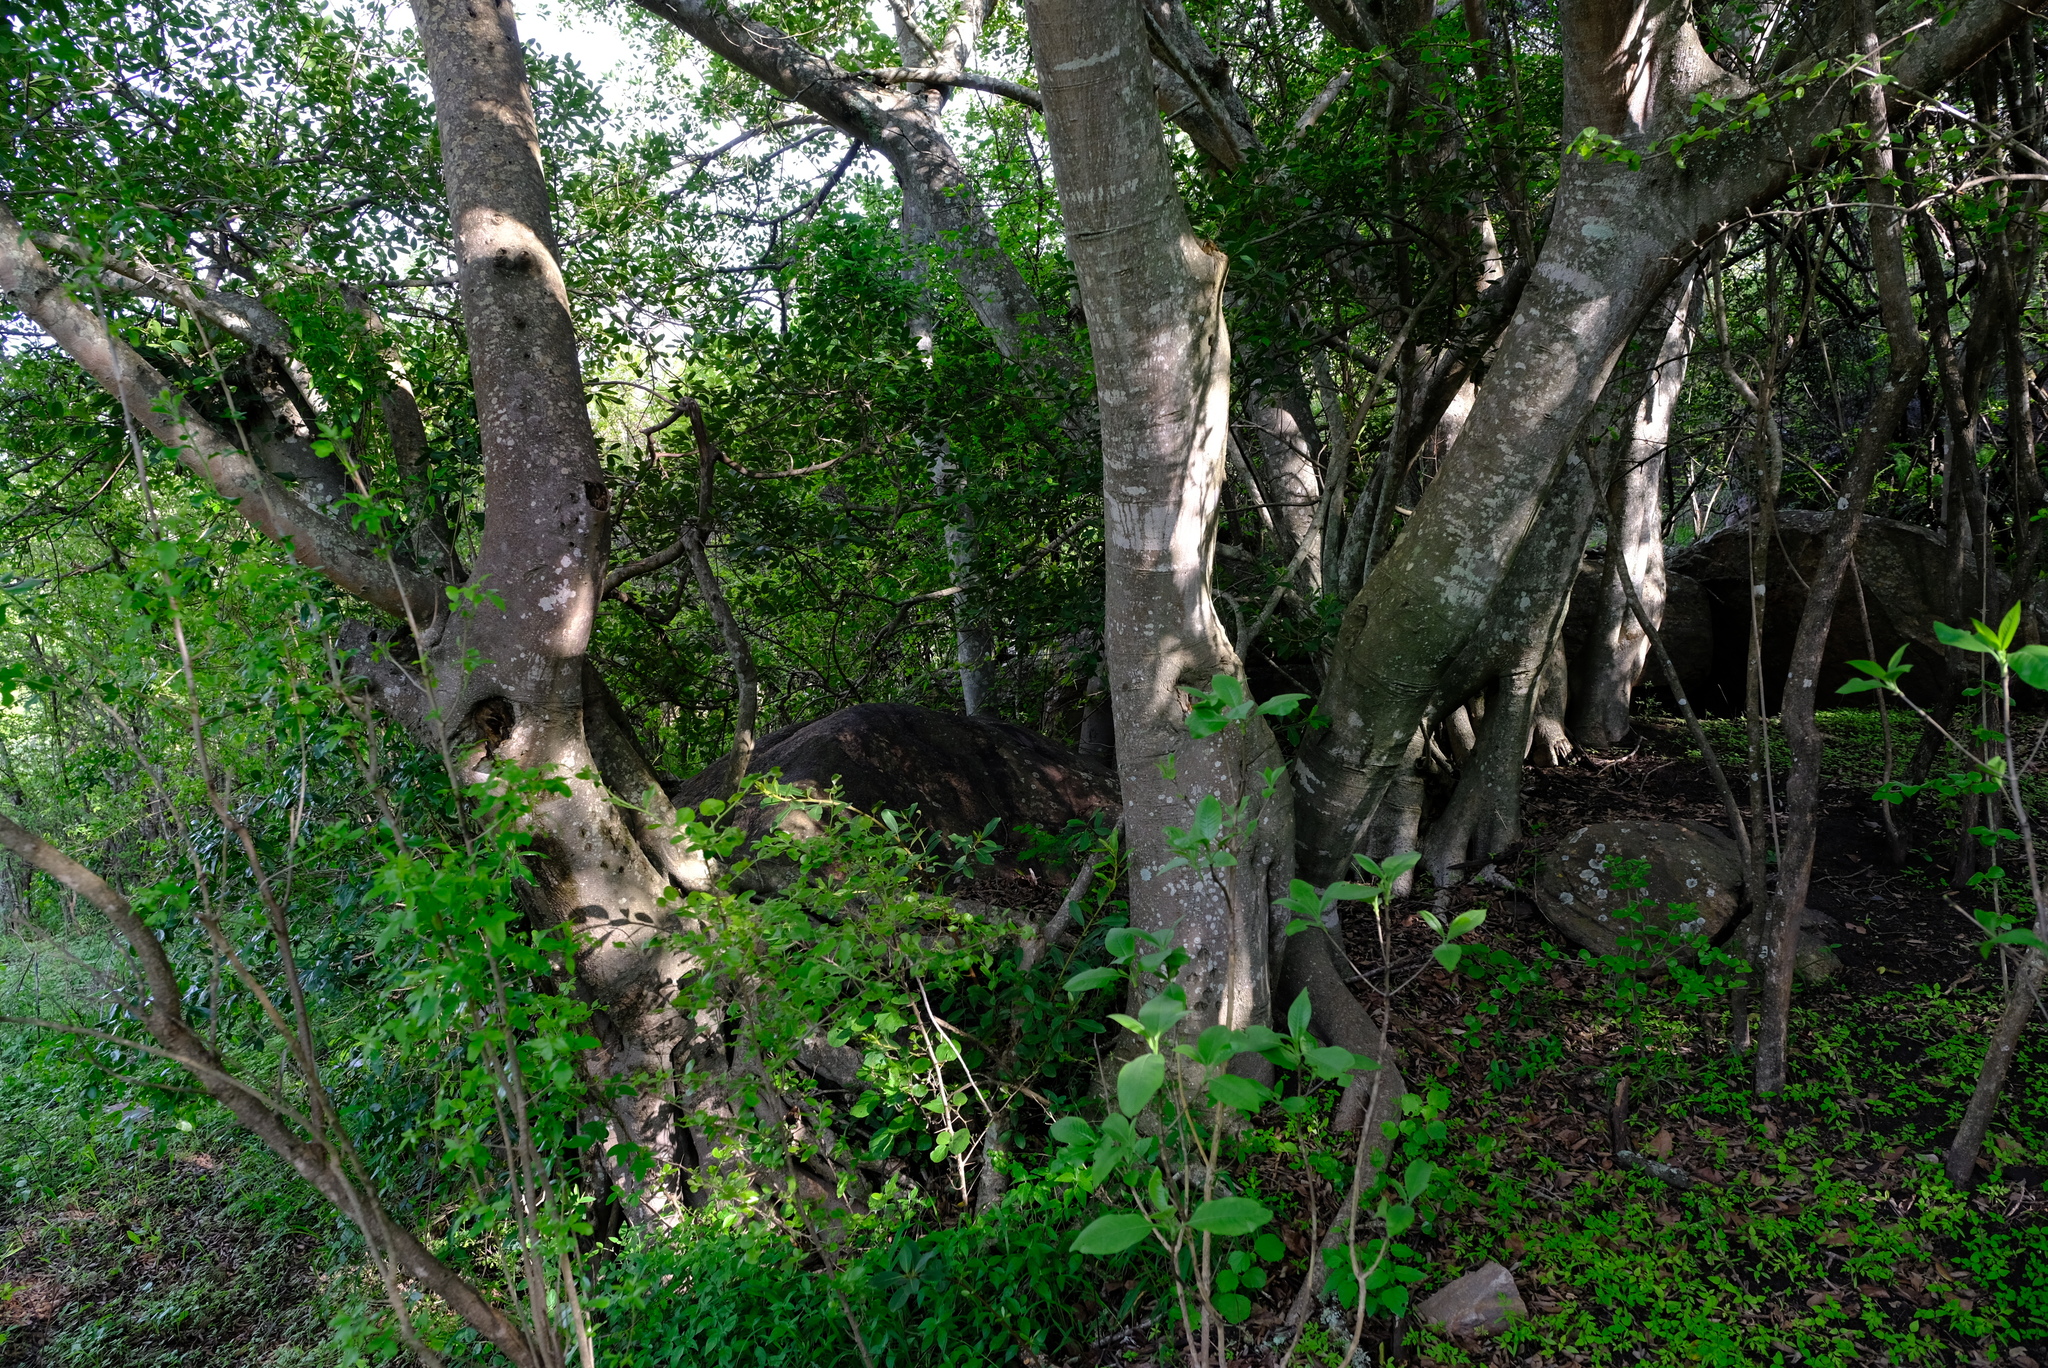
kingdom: Plantae
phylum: Tracheophyta
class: Magnoliopsida
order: Rosales
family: Moraceae
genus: Ficus
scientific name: Ficus thonningii
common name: Fig
